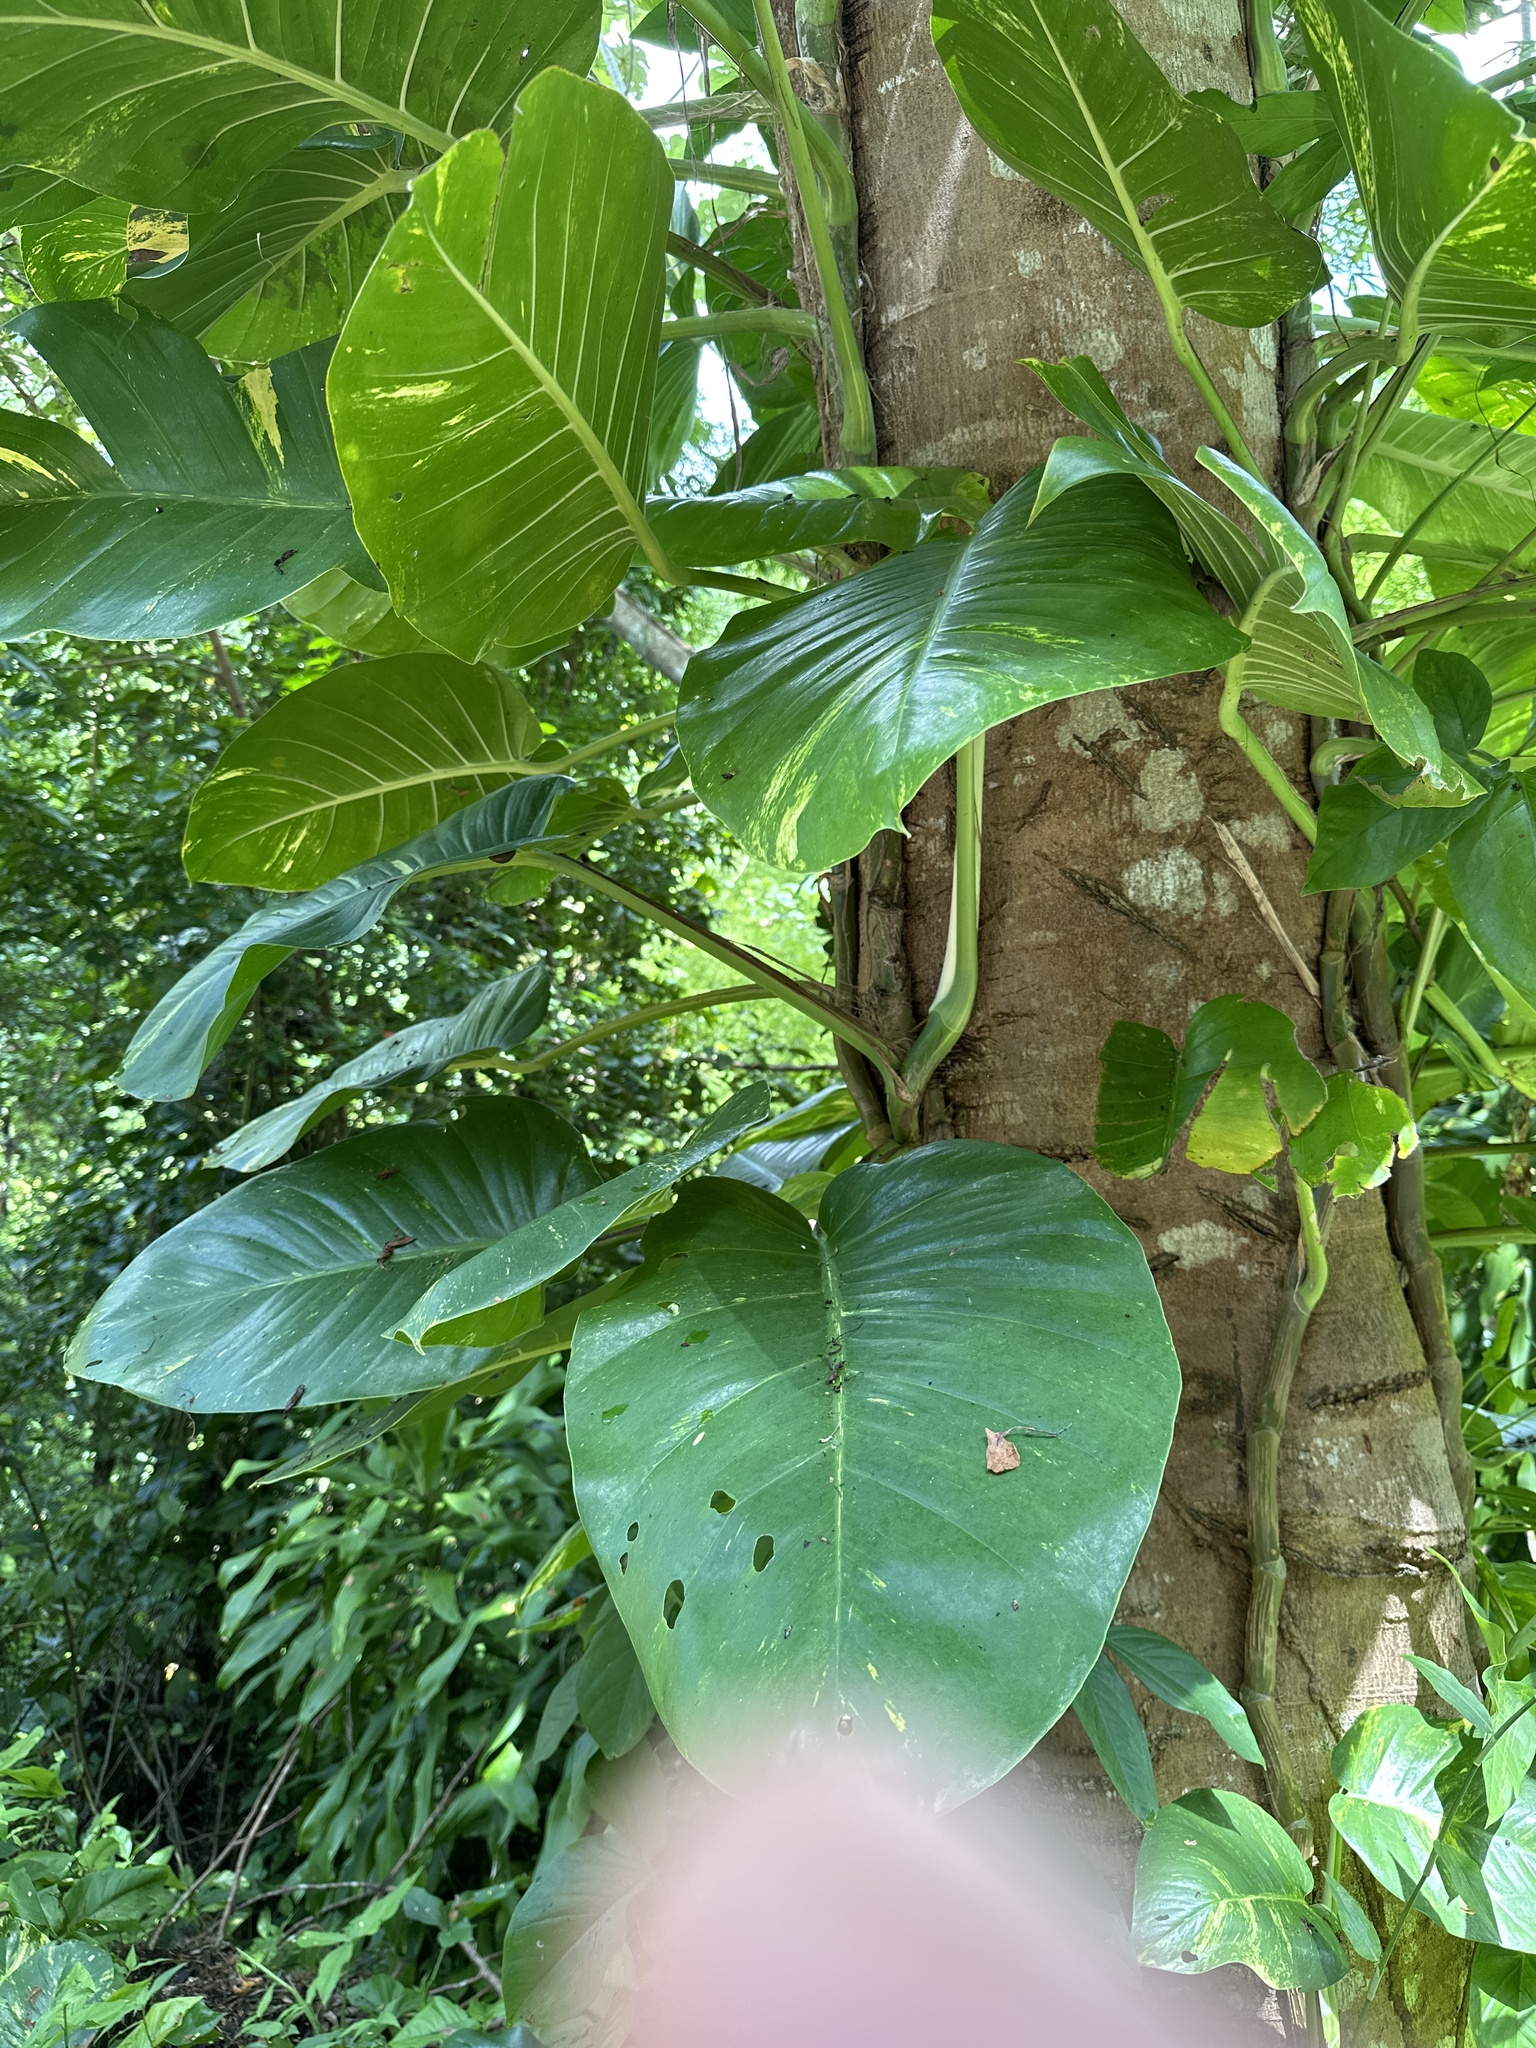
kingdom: Plantae
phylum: Tracheophyta
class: Liliopsida
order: Alismatales
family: Araceae
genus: Epipremnum
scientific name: Epipremnum aureum
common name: Golden hunter's-robe
